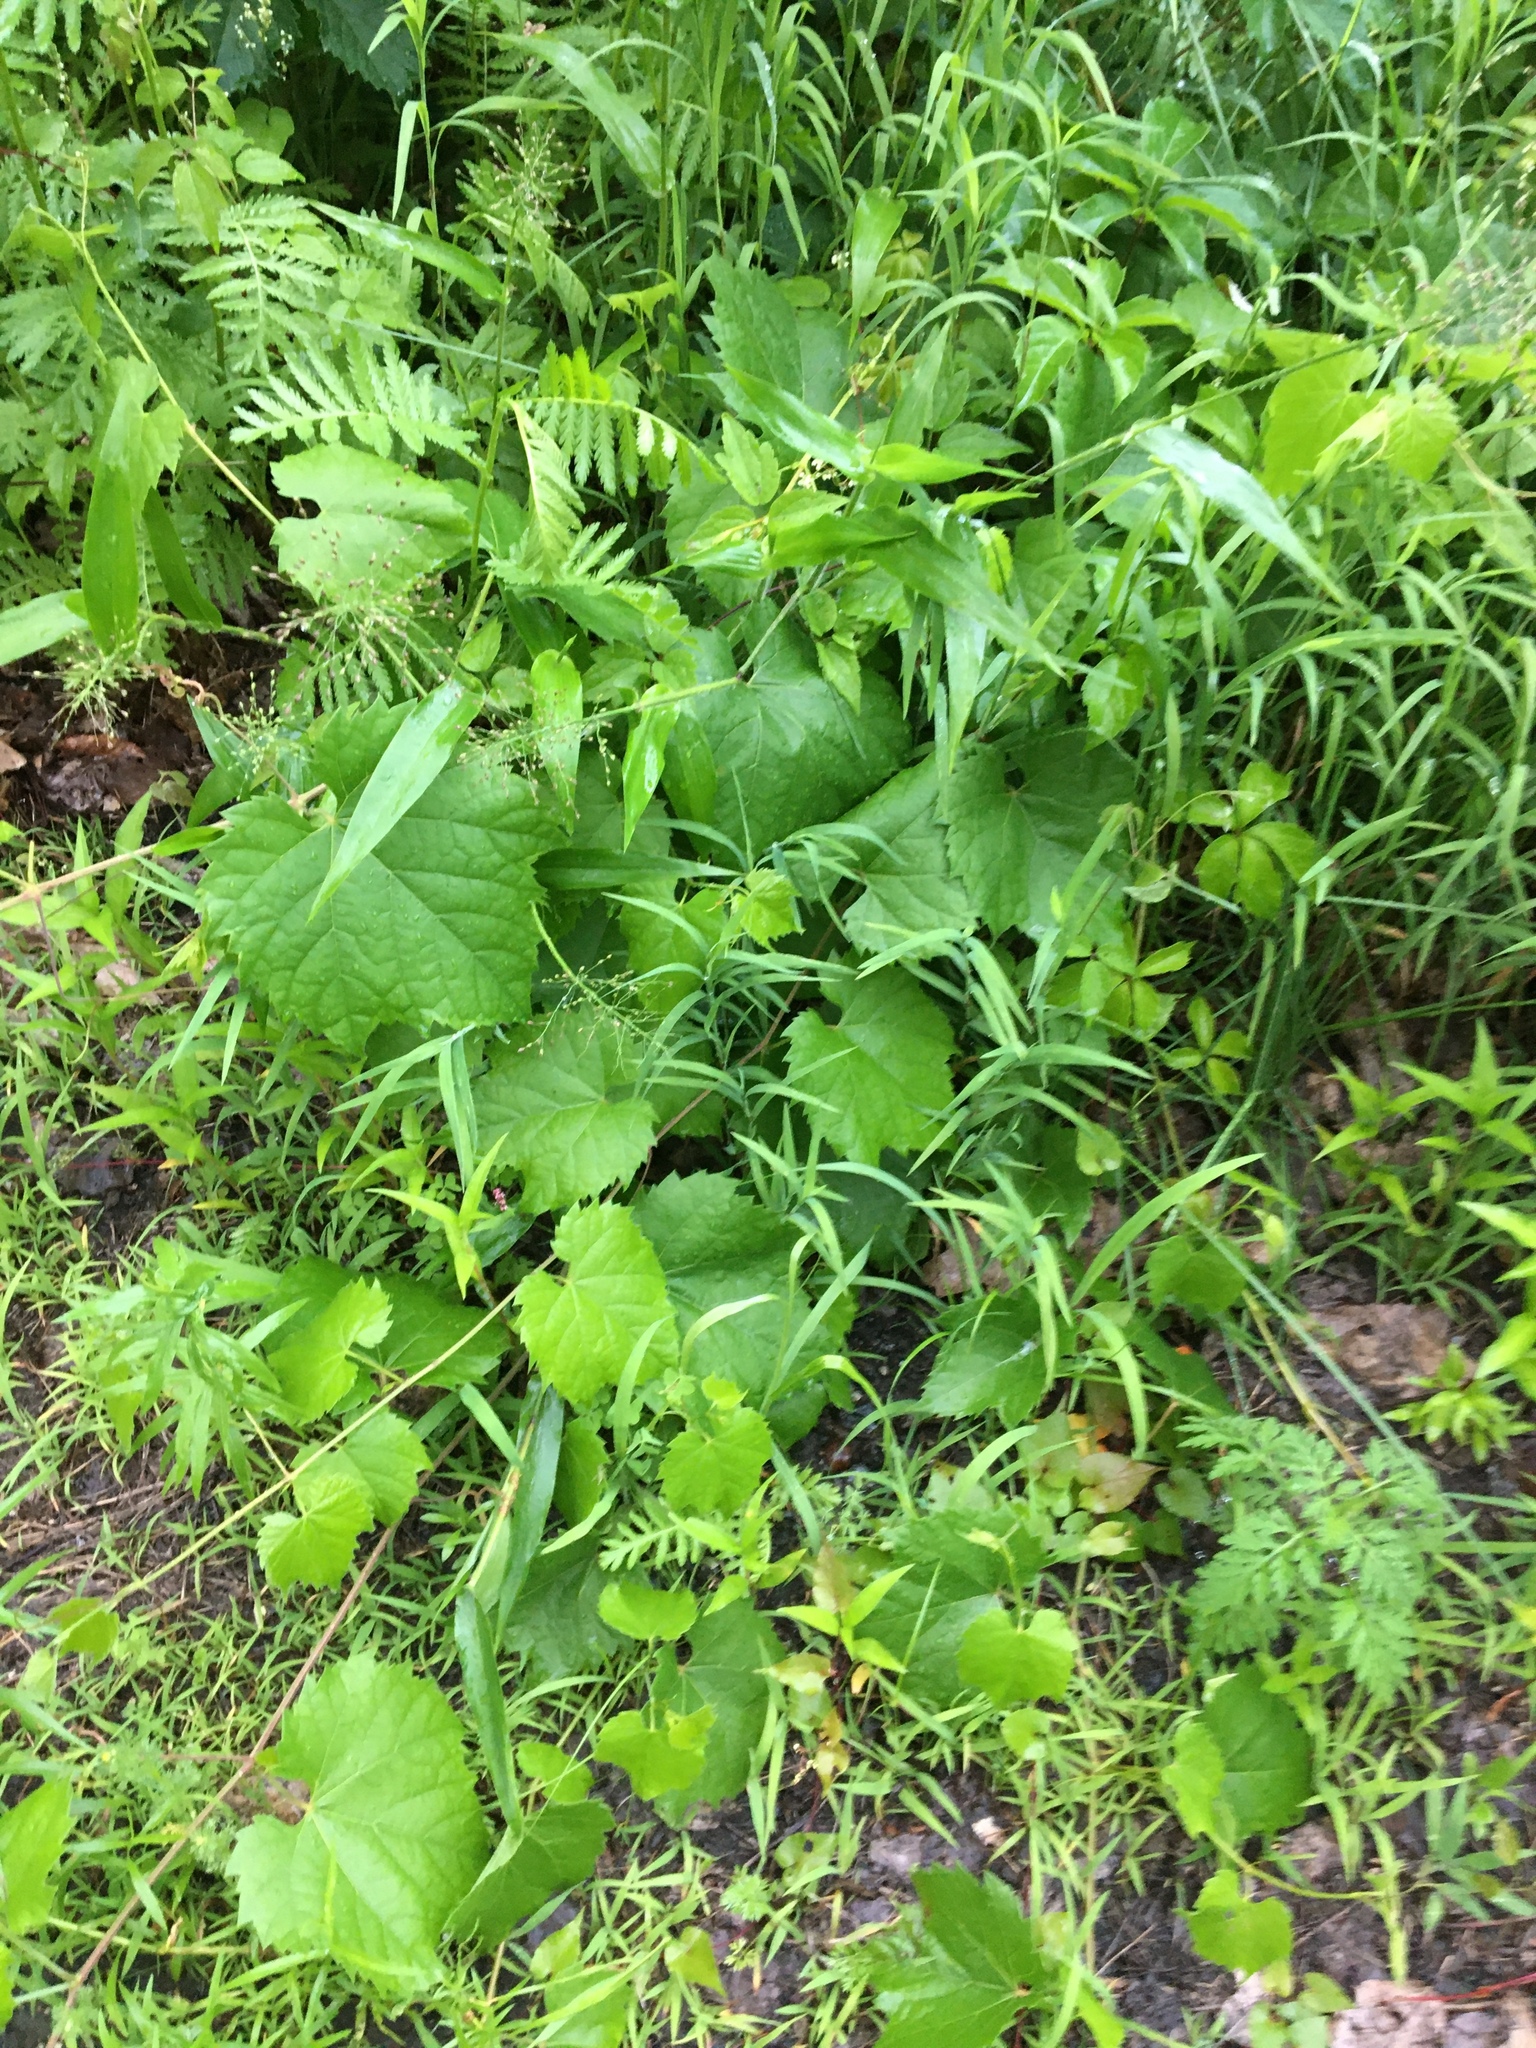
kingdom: Plantae
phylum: Tracheophyta
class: Magnoliopsida
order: Vitales
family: Vitaceae
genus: Vitis
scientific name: Vitis riparia
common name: Frost grape
